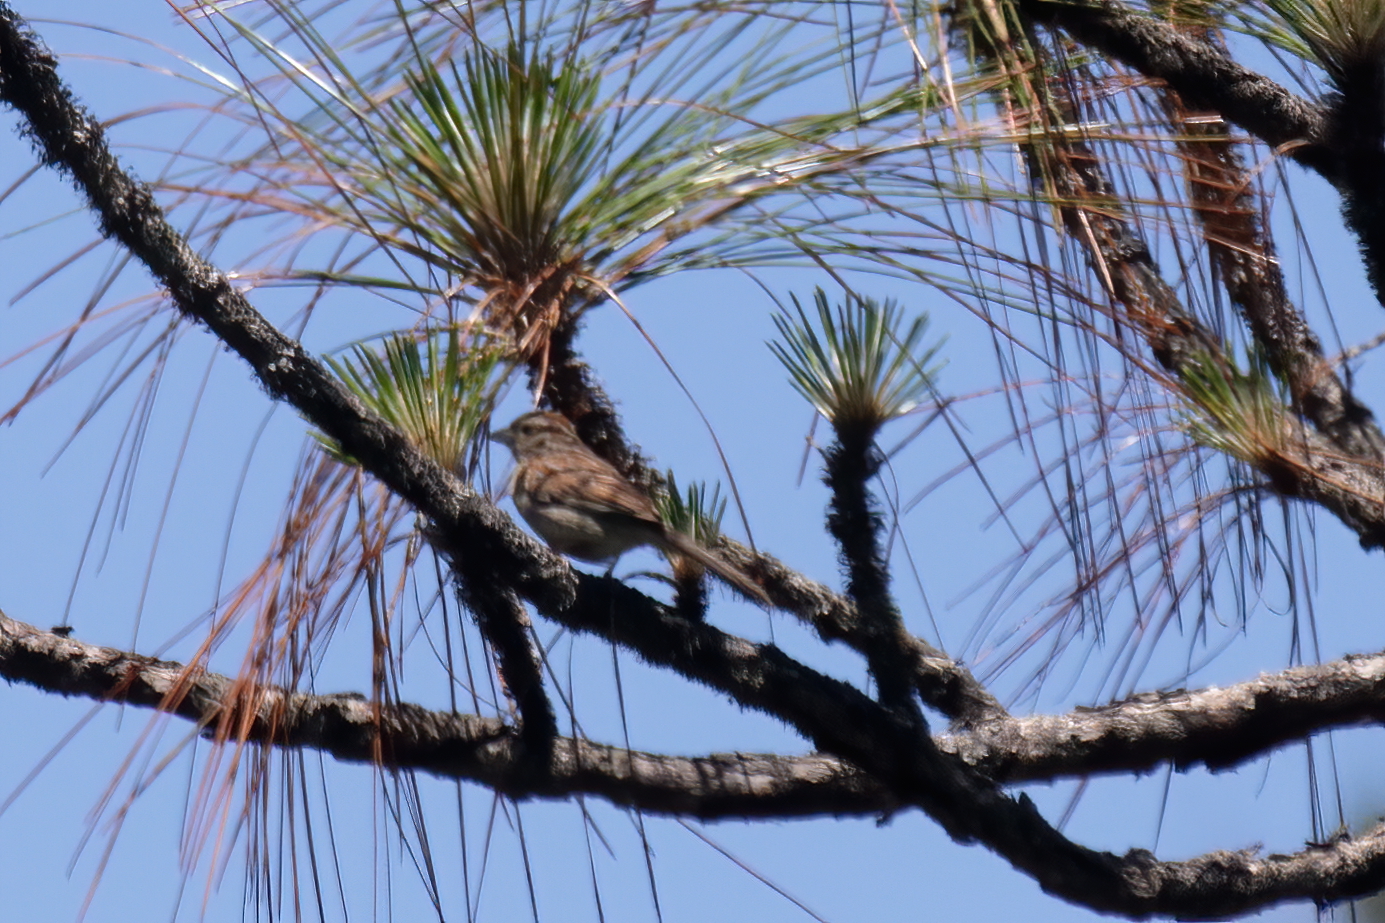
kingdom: Animalia
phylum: Chordata
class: Aves
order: Passeriformes
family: Passerellidae
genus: Peucaea
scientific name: Peucaea aestivalis
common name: Bachman's sparrow
